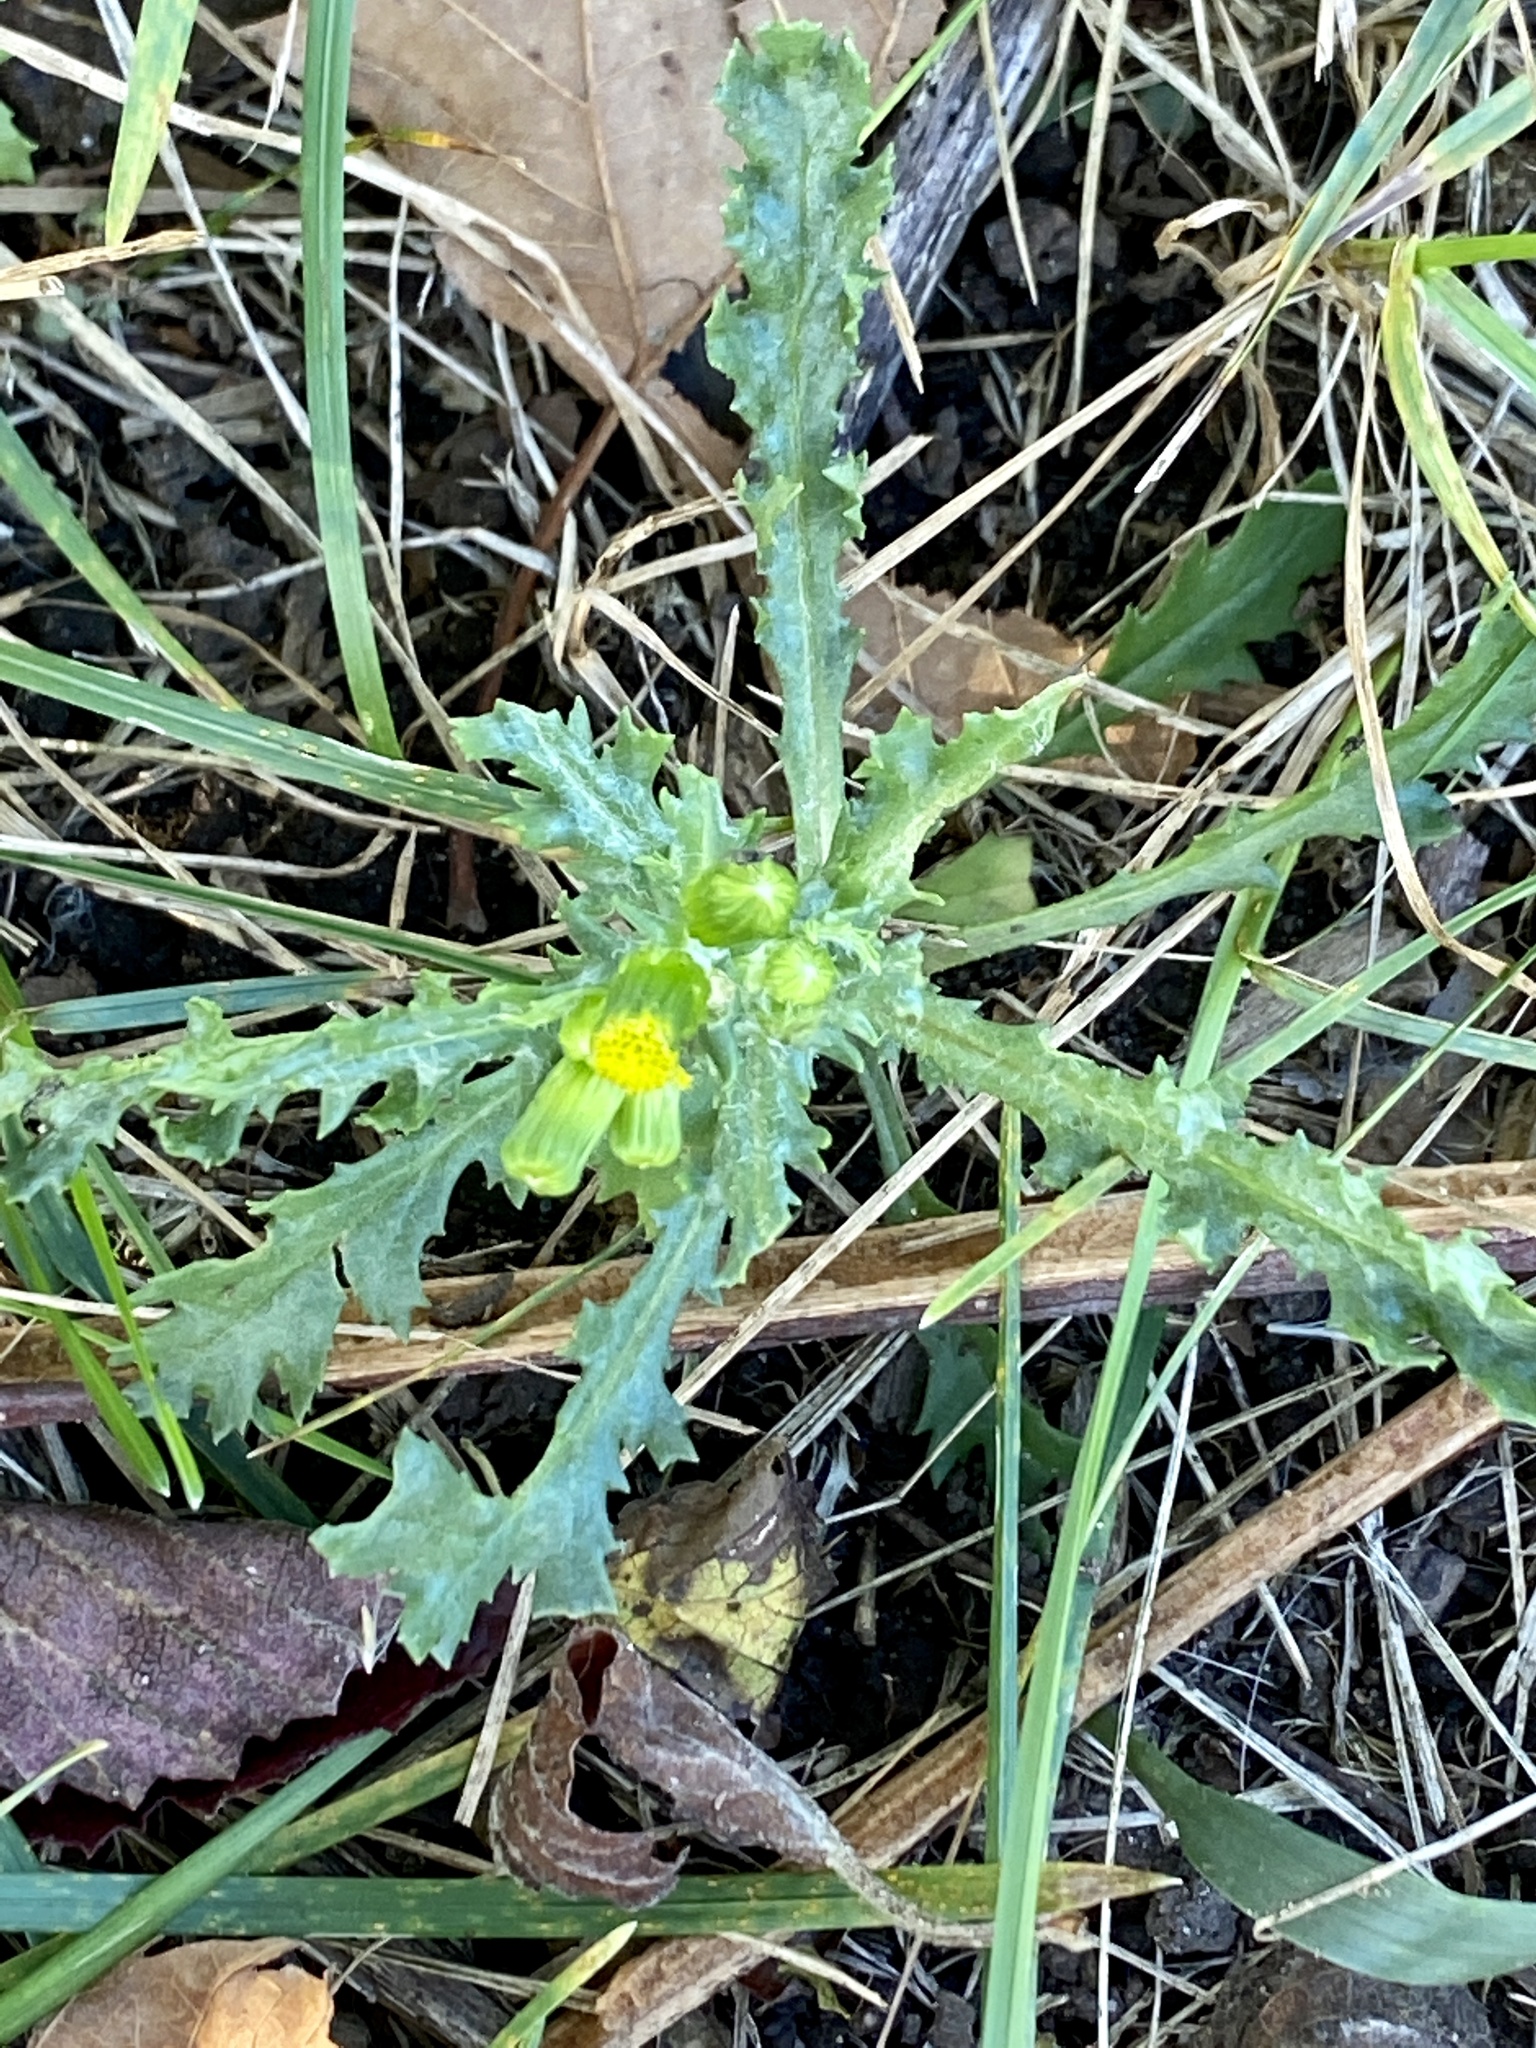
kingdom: Plantae
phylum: Tracheophyta
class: Magnoliopsida
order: Asterales
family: Asteraceae
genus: Senecio
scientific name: Senecio vulgaris
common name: Old-man-in-the-spring
